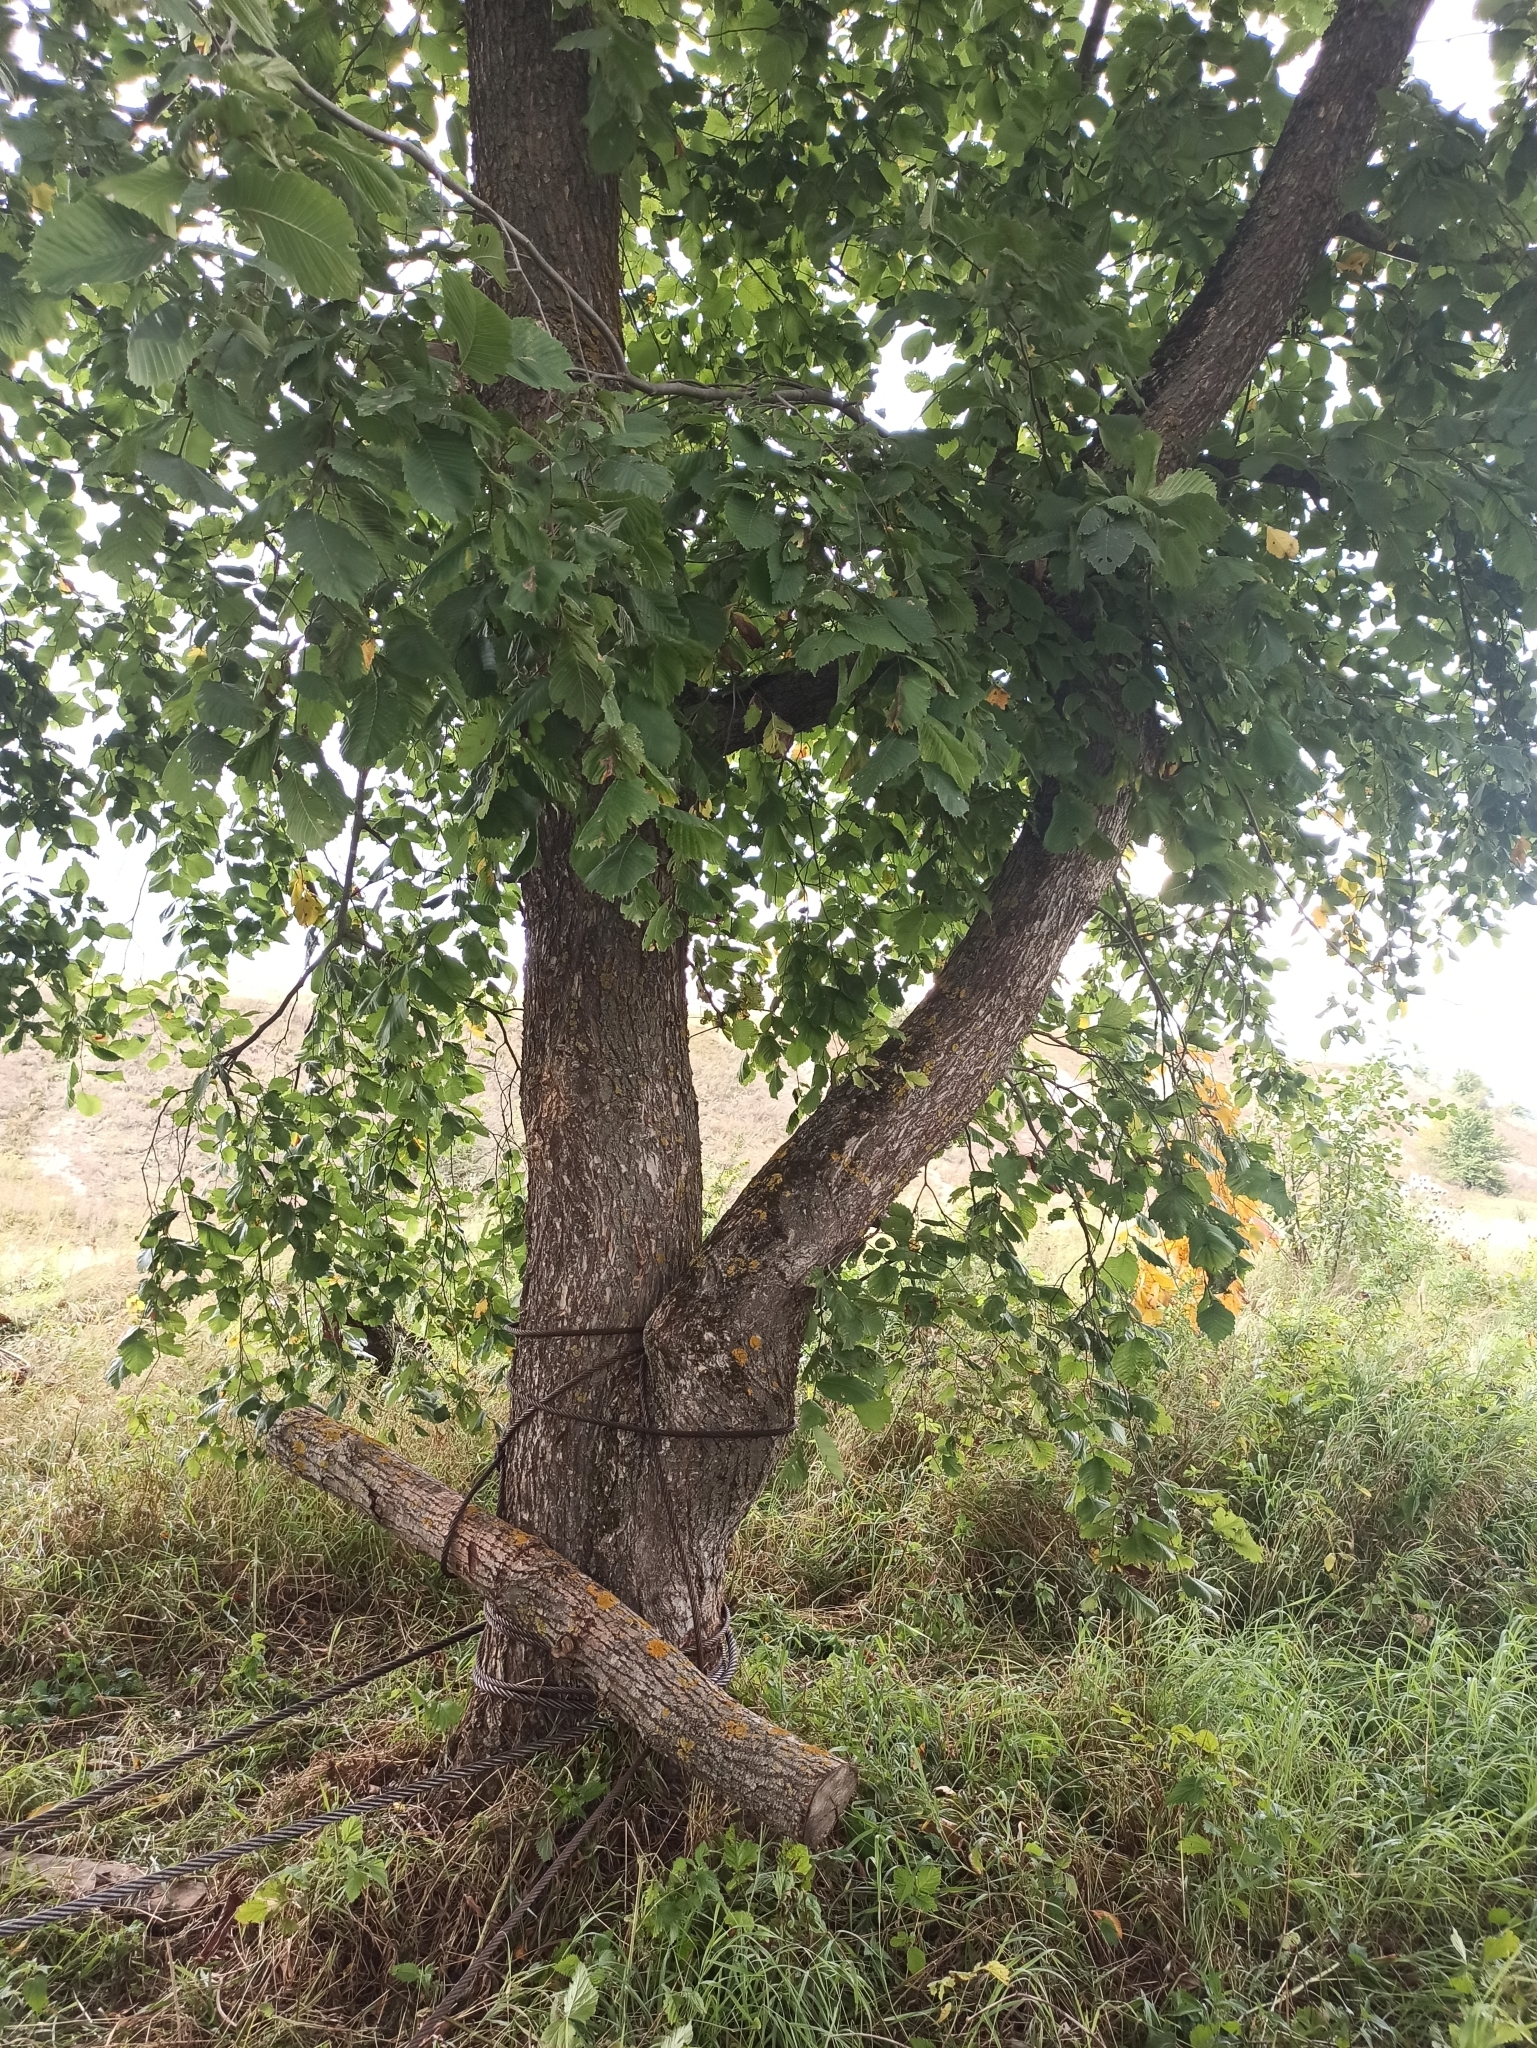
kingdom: Plantae
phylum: Tracheophyta
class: Magnoliopsida
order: Rosales
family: Ulmaceae
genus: Ulmus
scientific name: Ulmus laevis
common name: European white-elm
